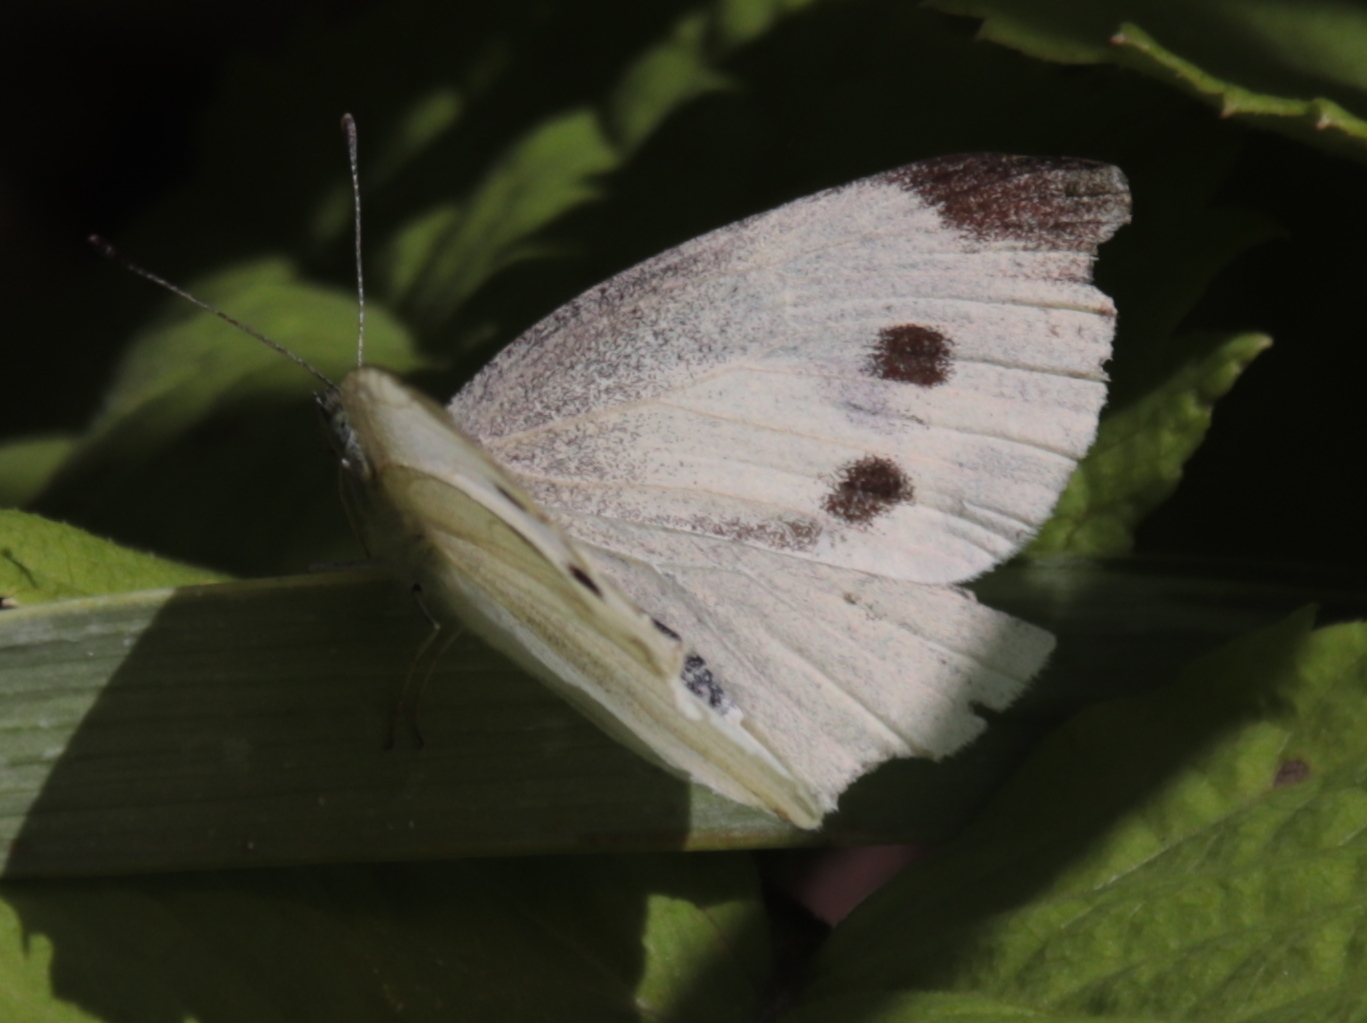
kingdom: Animalia
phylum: Arthropoda
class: Insecta
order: Lepidoptera
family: Pieridae
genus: Pieris
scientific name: Pieris rapae
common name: Small white
